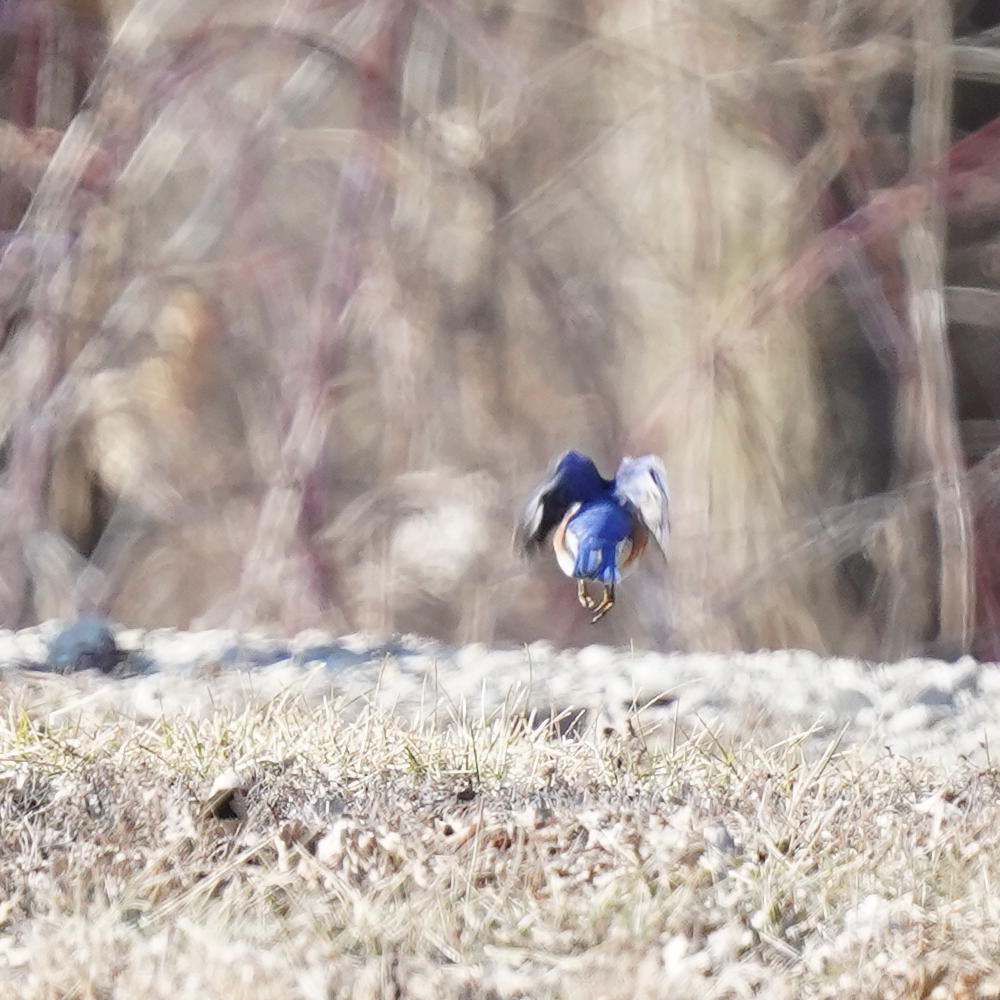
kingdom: Animalia
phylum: Chordata
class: Aves
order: Passeriformes
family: Turdidae
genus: Sialia
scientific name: Sialia sialis
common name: Eastern bluebird
